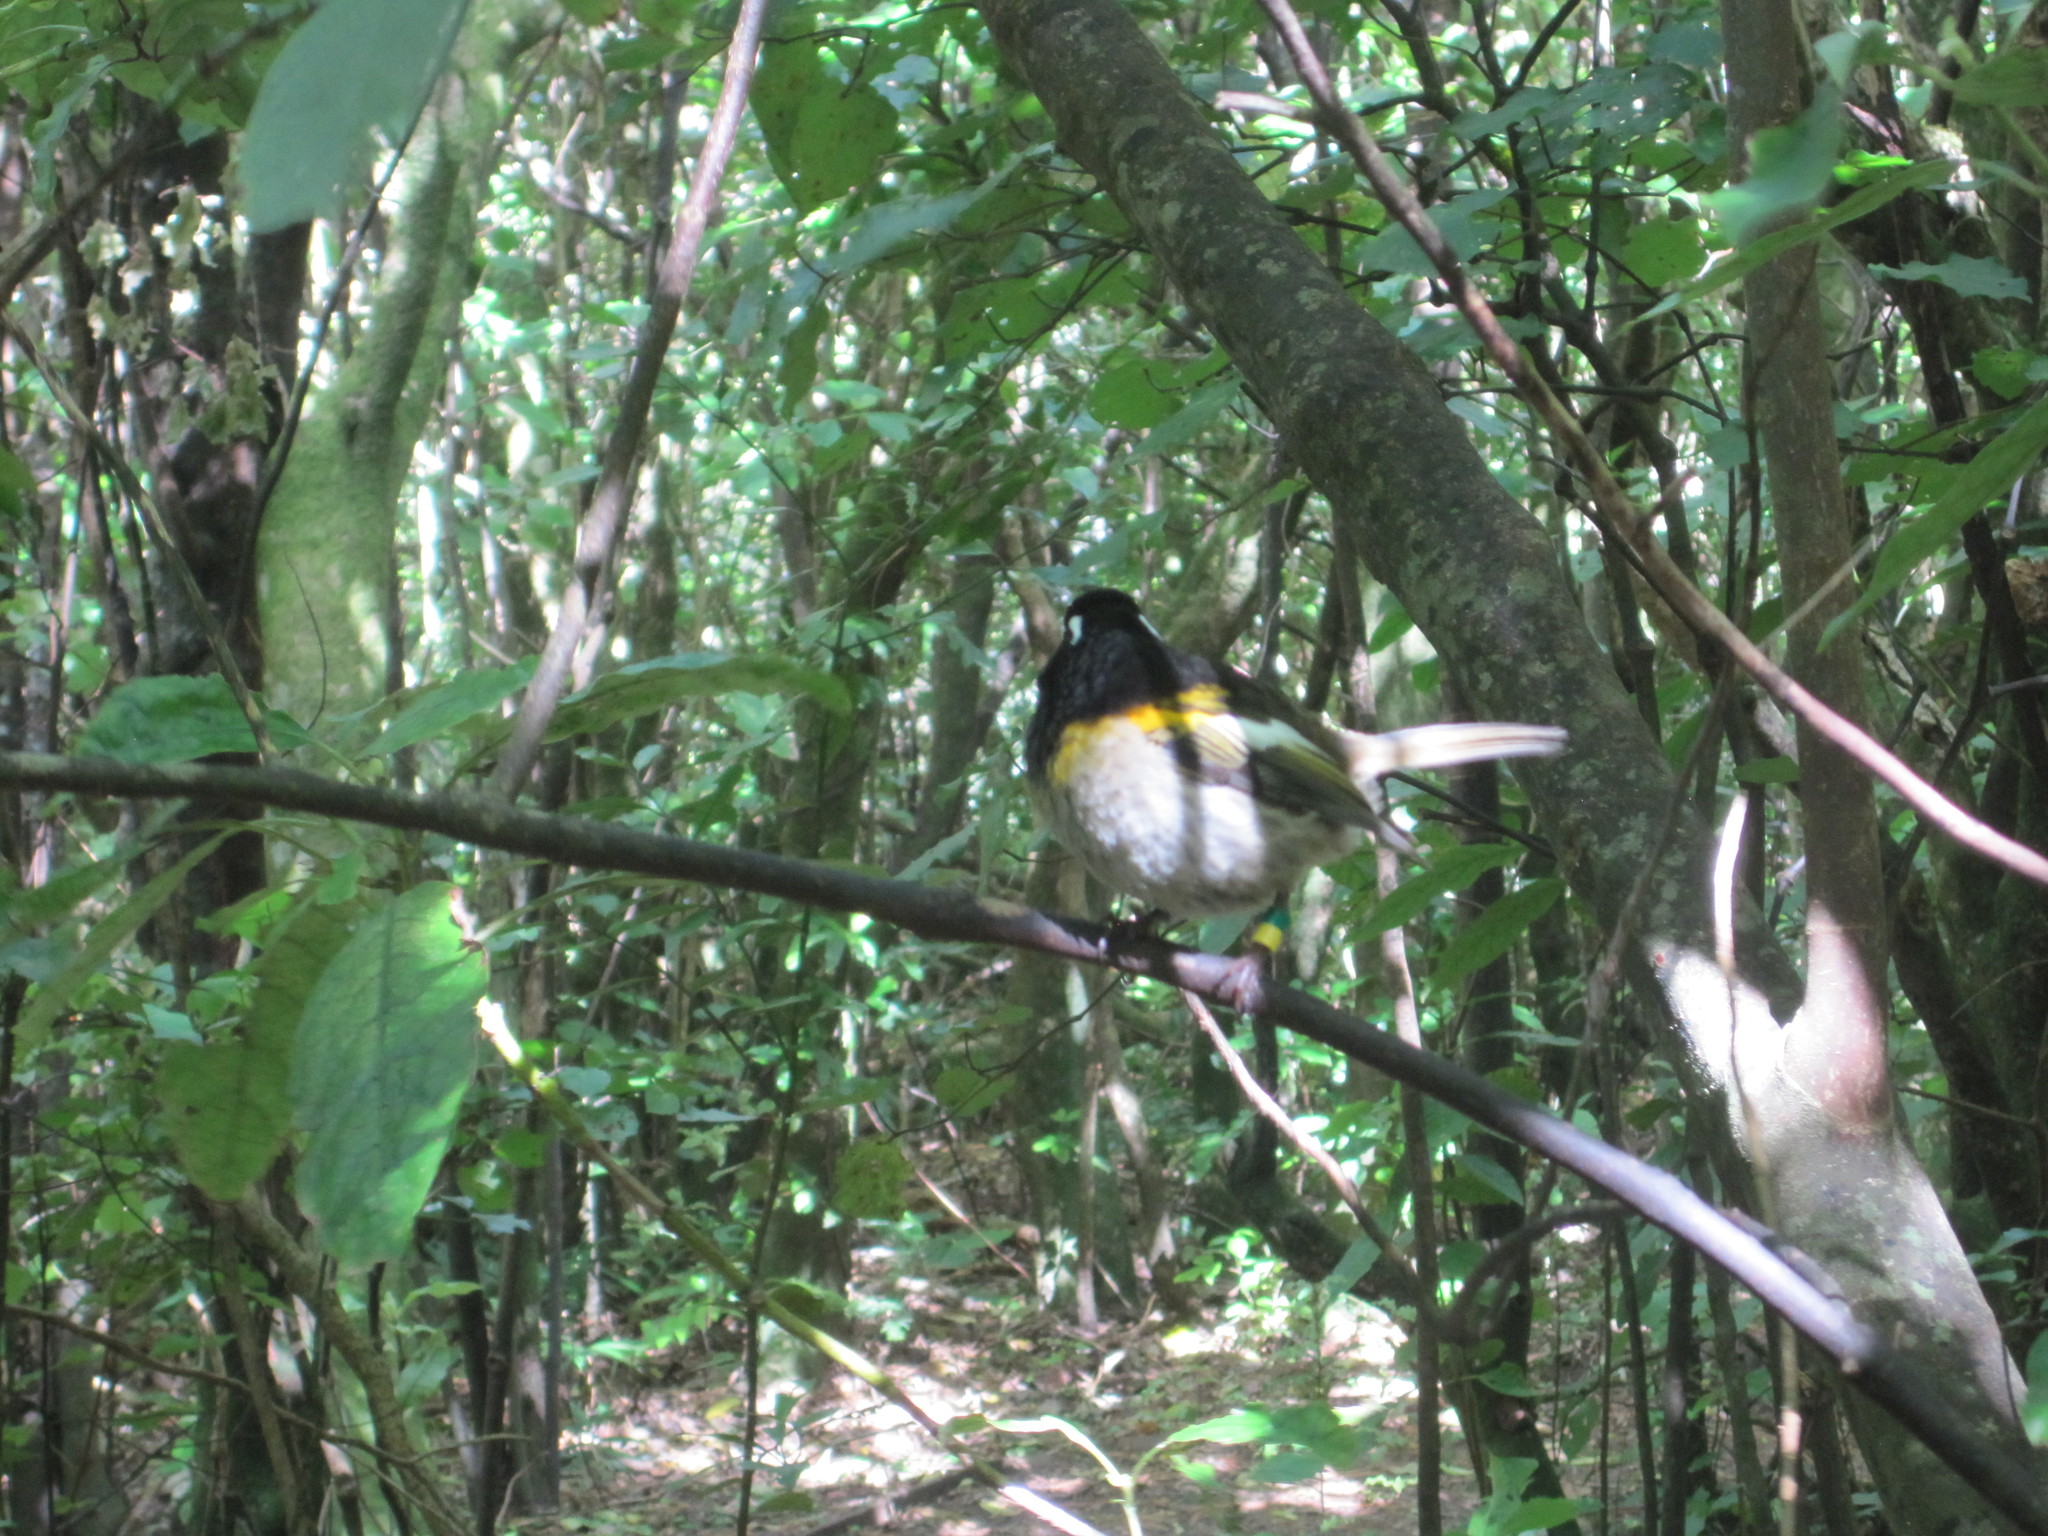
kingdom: Animalia
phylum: Chordata
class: Aves
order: Passeriformes
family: Notiomystidae
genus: Notiomystis
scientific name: Notiomystis cincta
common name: Stitchbird
